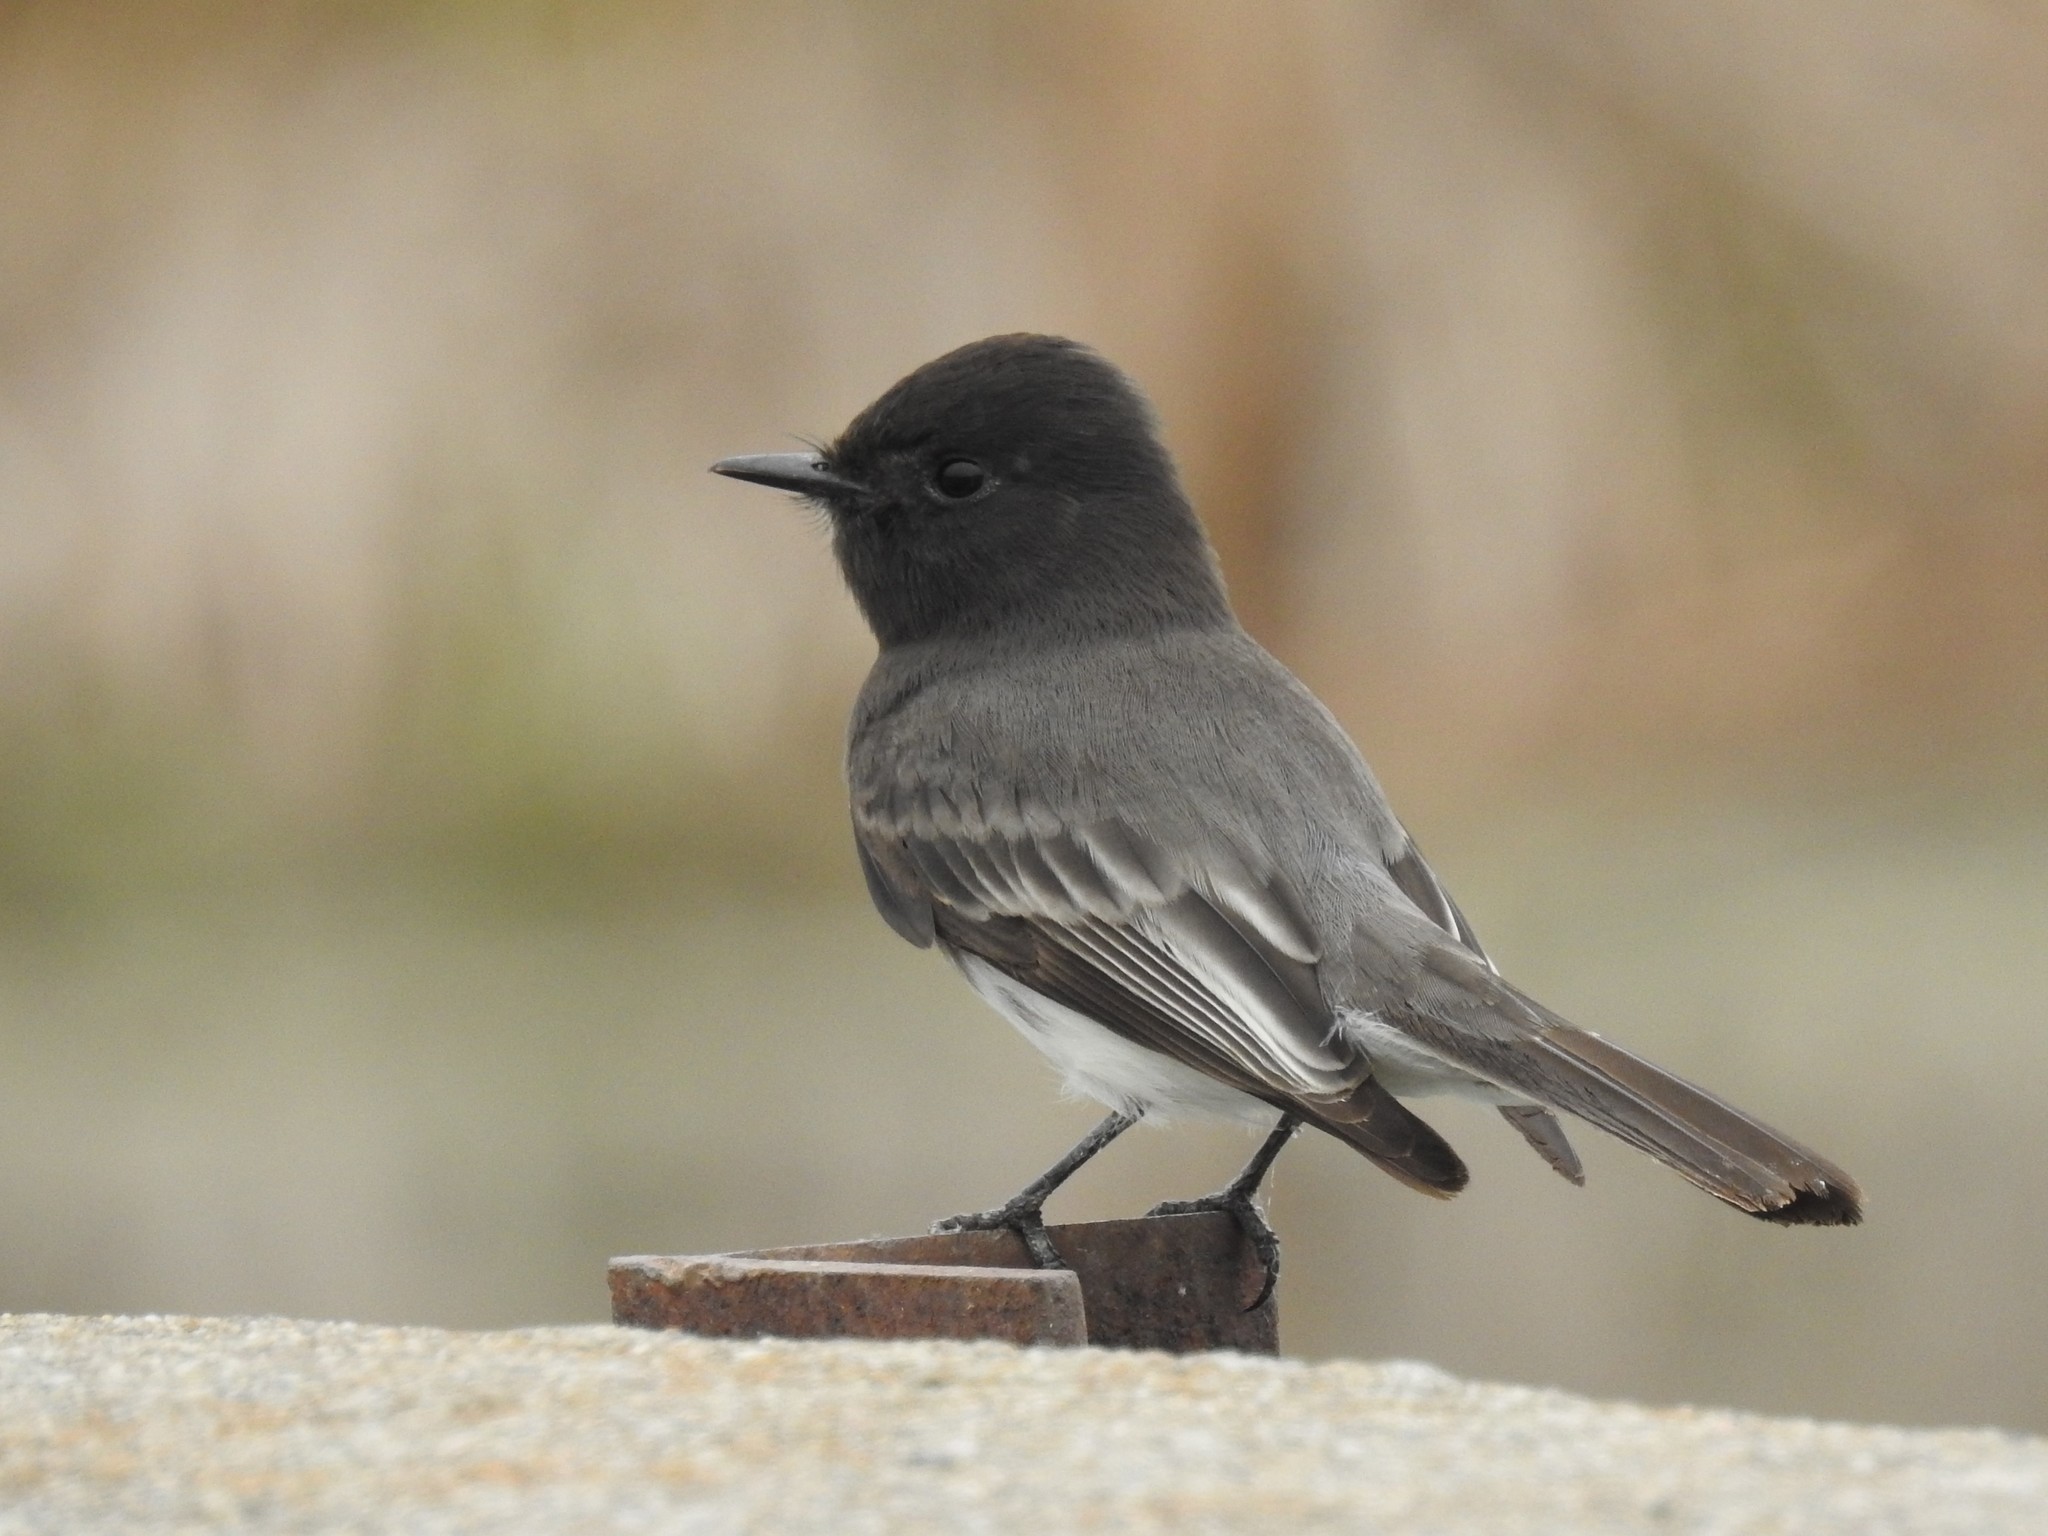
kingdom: Animalia
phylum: Chordata
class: Aves
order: Passeriformes
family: Tyrannidae
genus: Sayornis
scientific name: Sayornis nigricans
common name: Black phoebe
